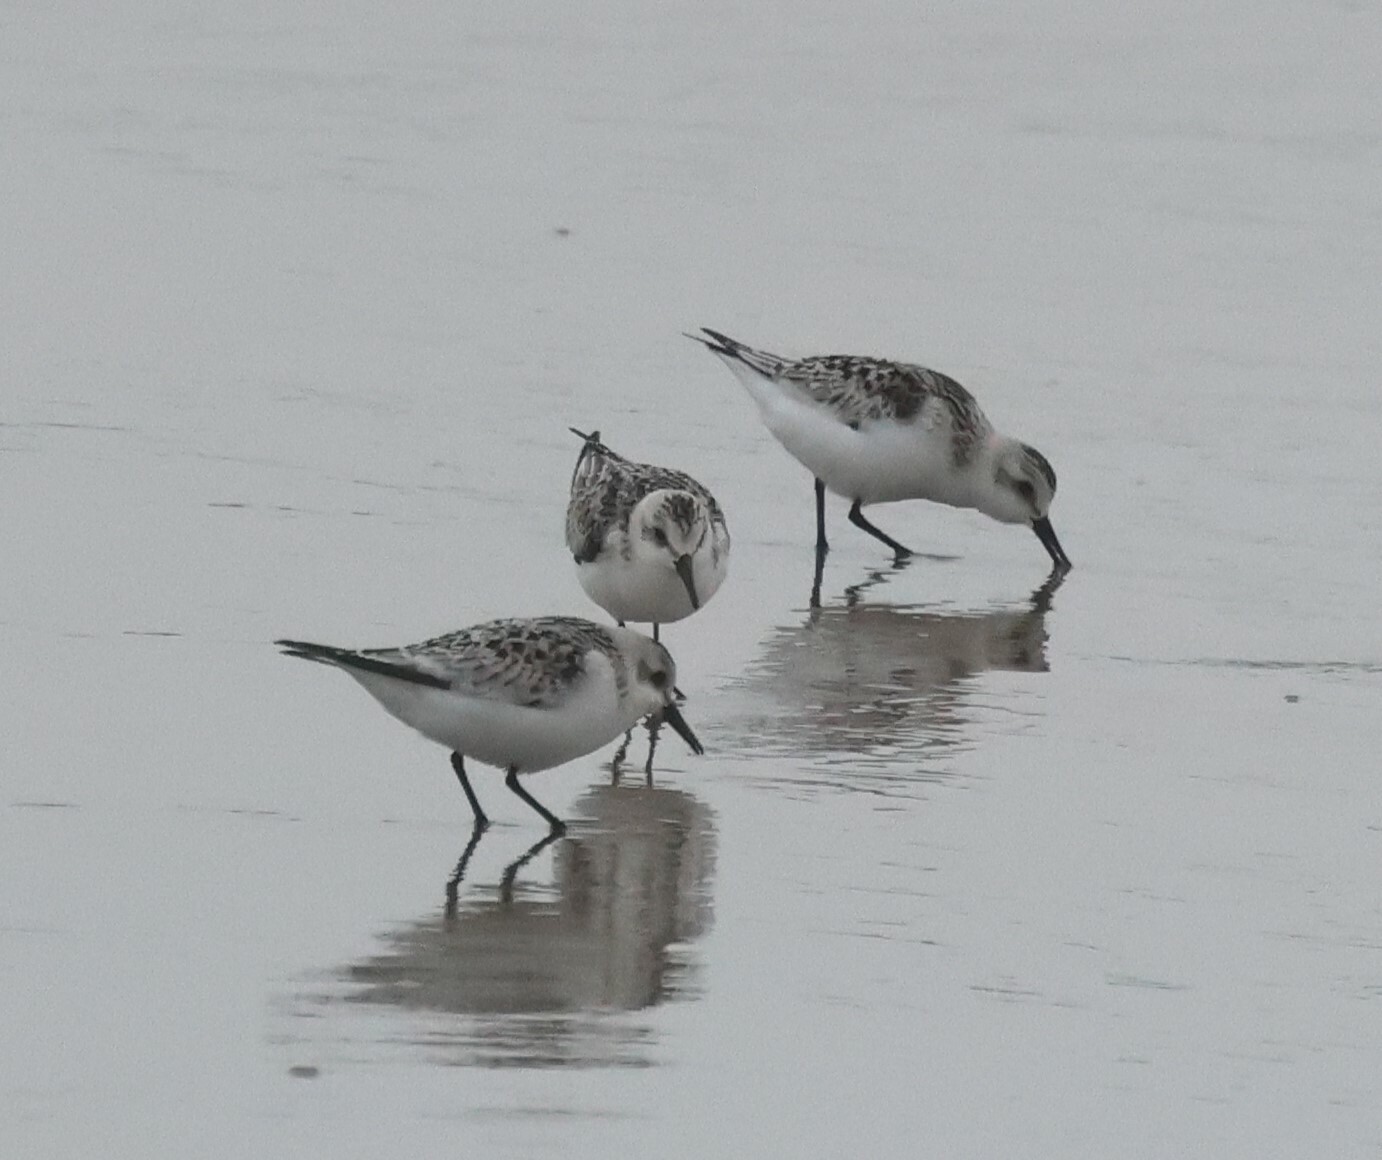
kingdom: Animalia
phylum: Chordata
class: Aves
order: Charadriiformes
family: Scolopacidae
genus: Calidris
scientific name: Calidris alba
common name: Sanderling
